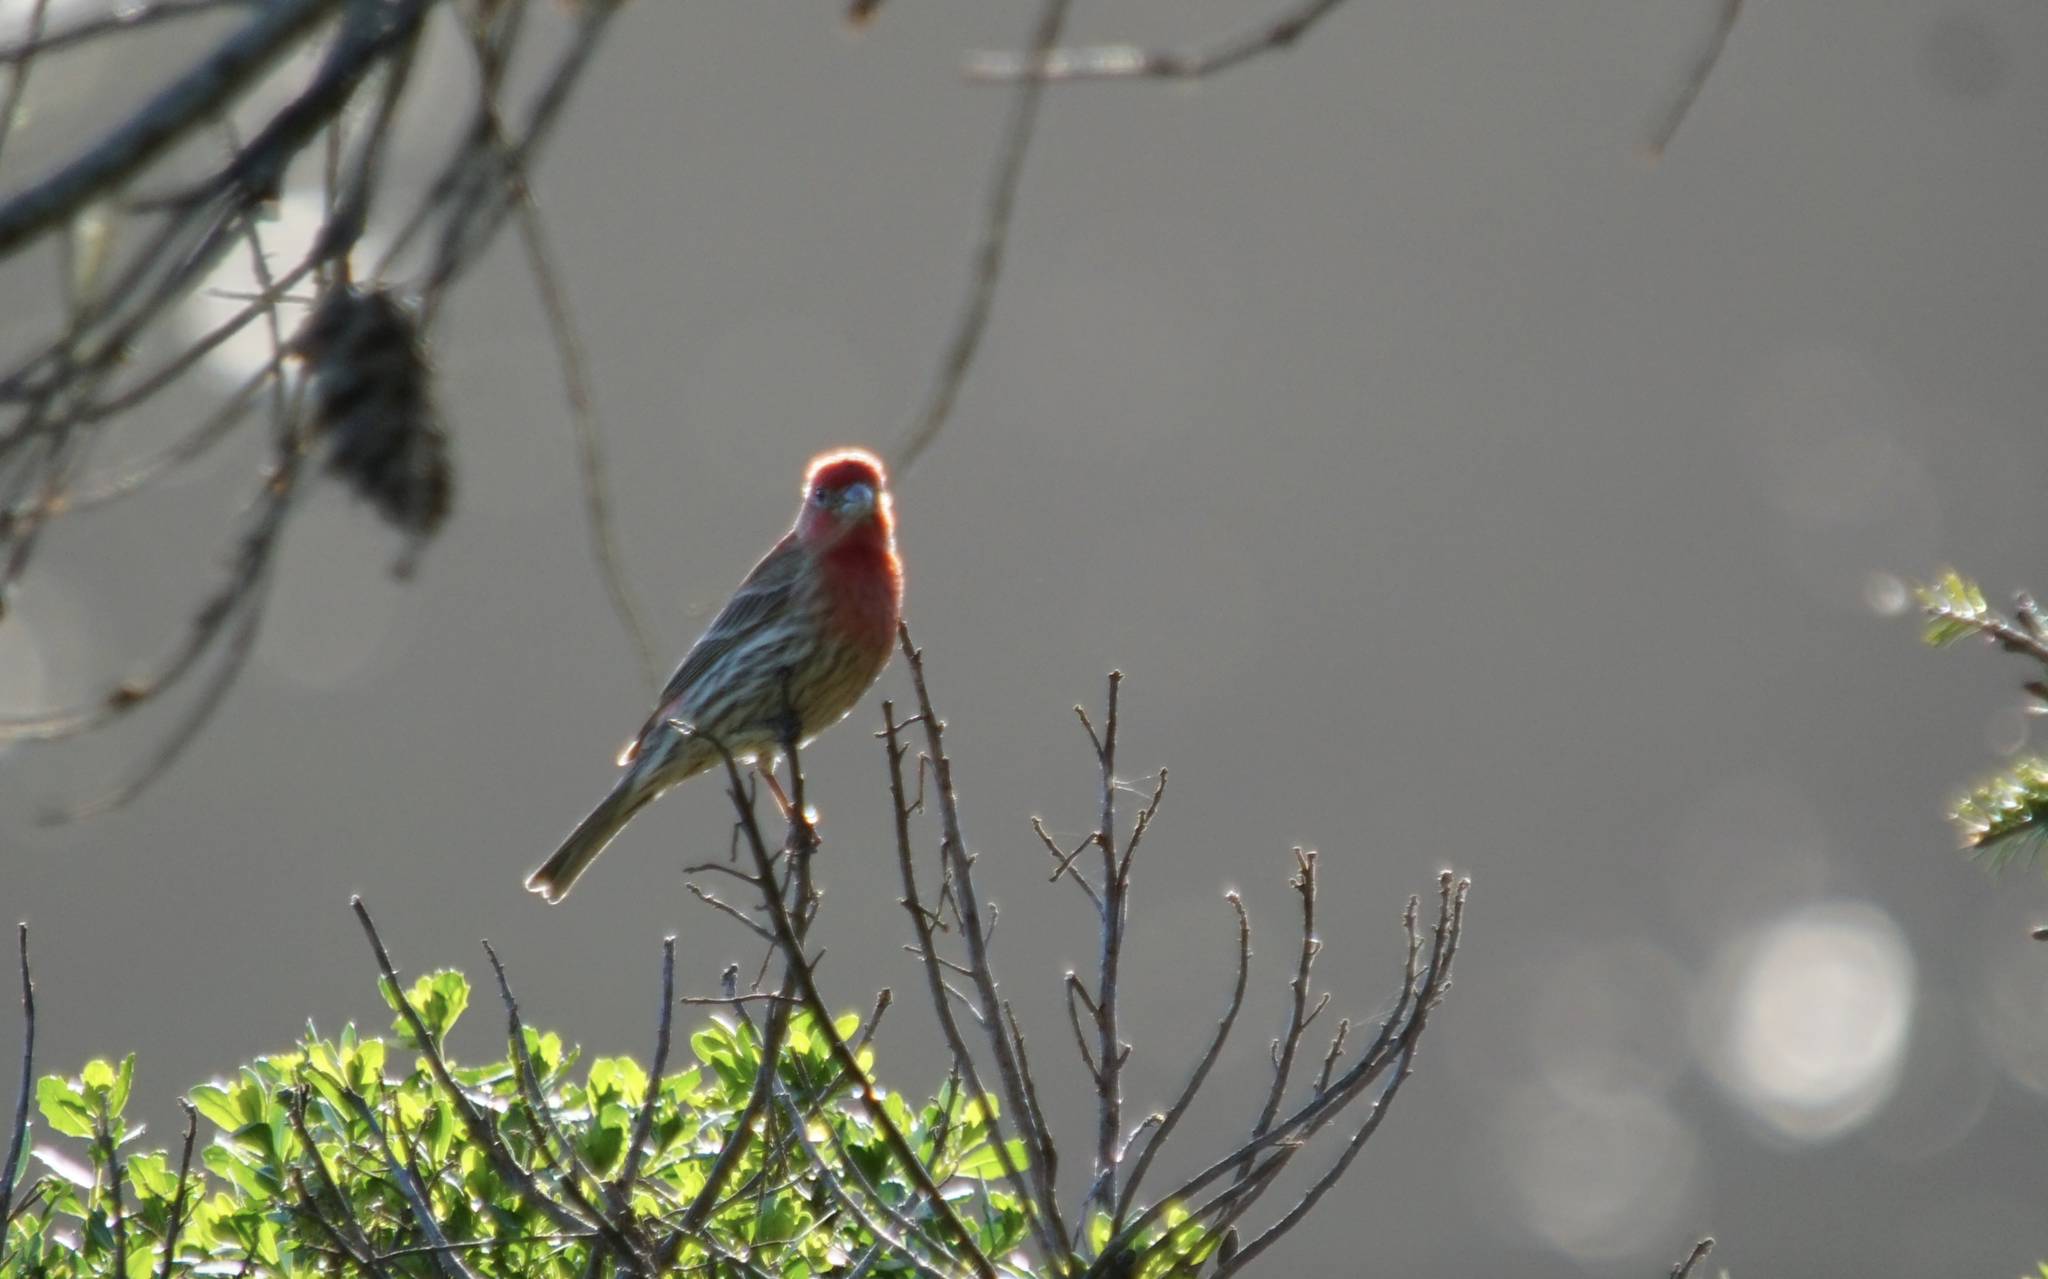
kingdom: Animalia
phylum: Chordata
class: Aves
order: Passeriformes
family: Fringillidae
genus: Haemorhous
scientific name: Haemorhous mexicanus
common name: House finch
